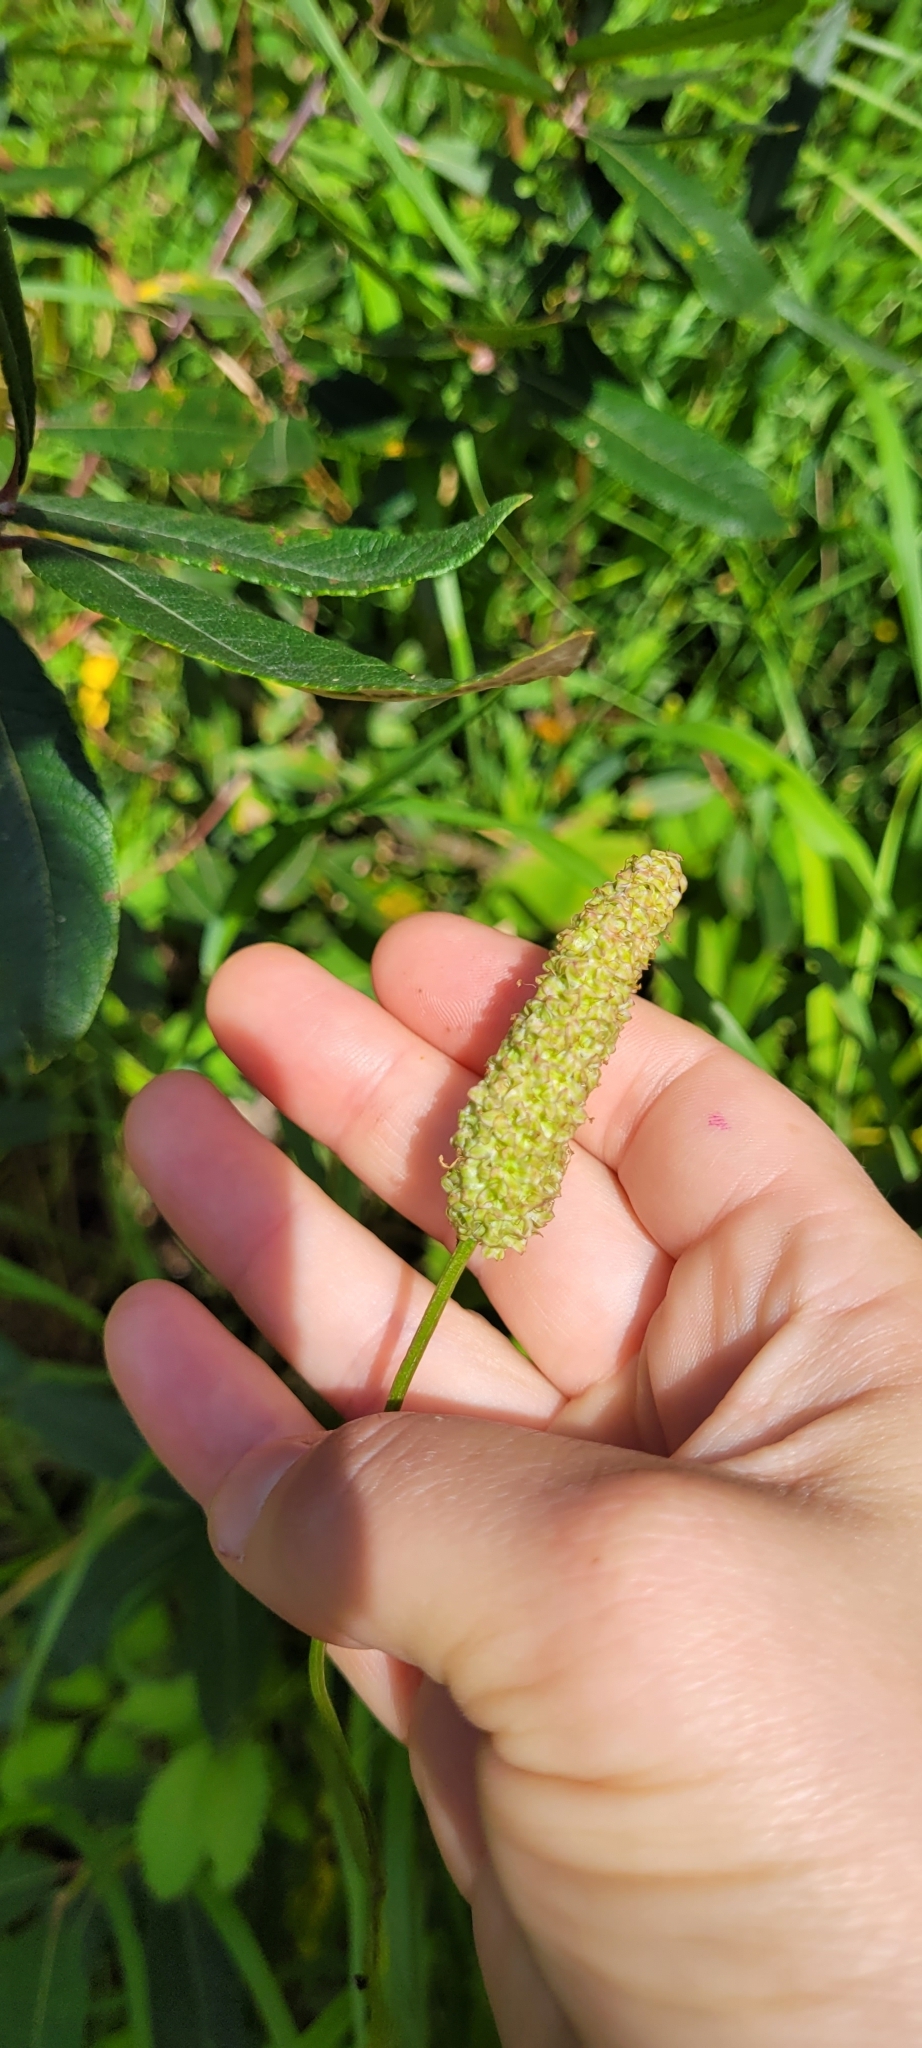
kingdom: Plantae
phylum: Tracheophyta
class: Magnoliopsida
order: Rosales
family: Rosaceae
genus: Sanguisorba
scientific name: Sanguisorba stipulata
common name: Sitka burnet
